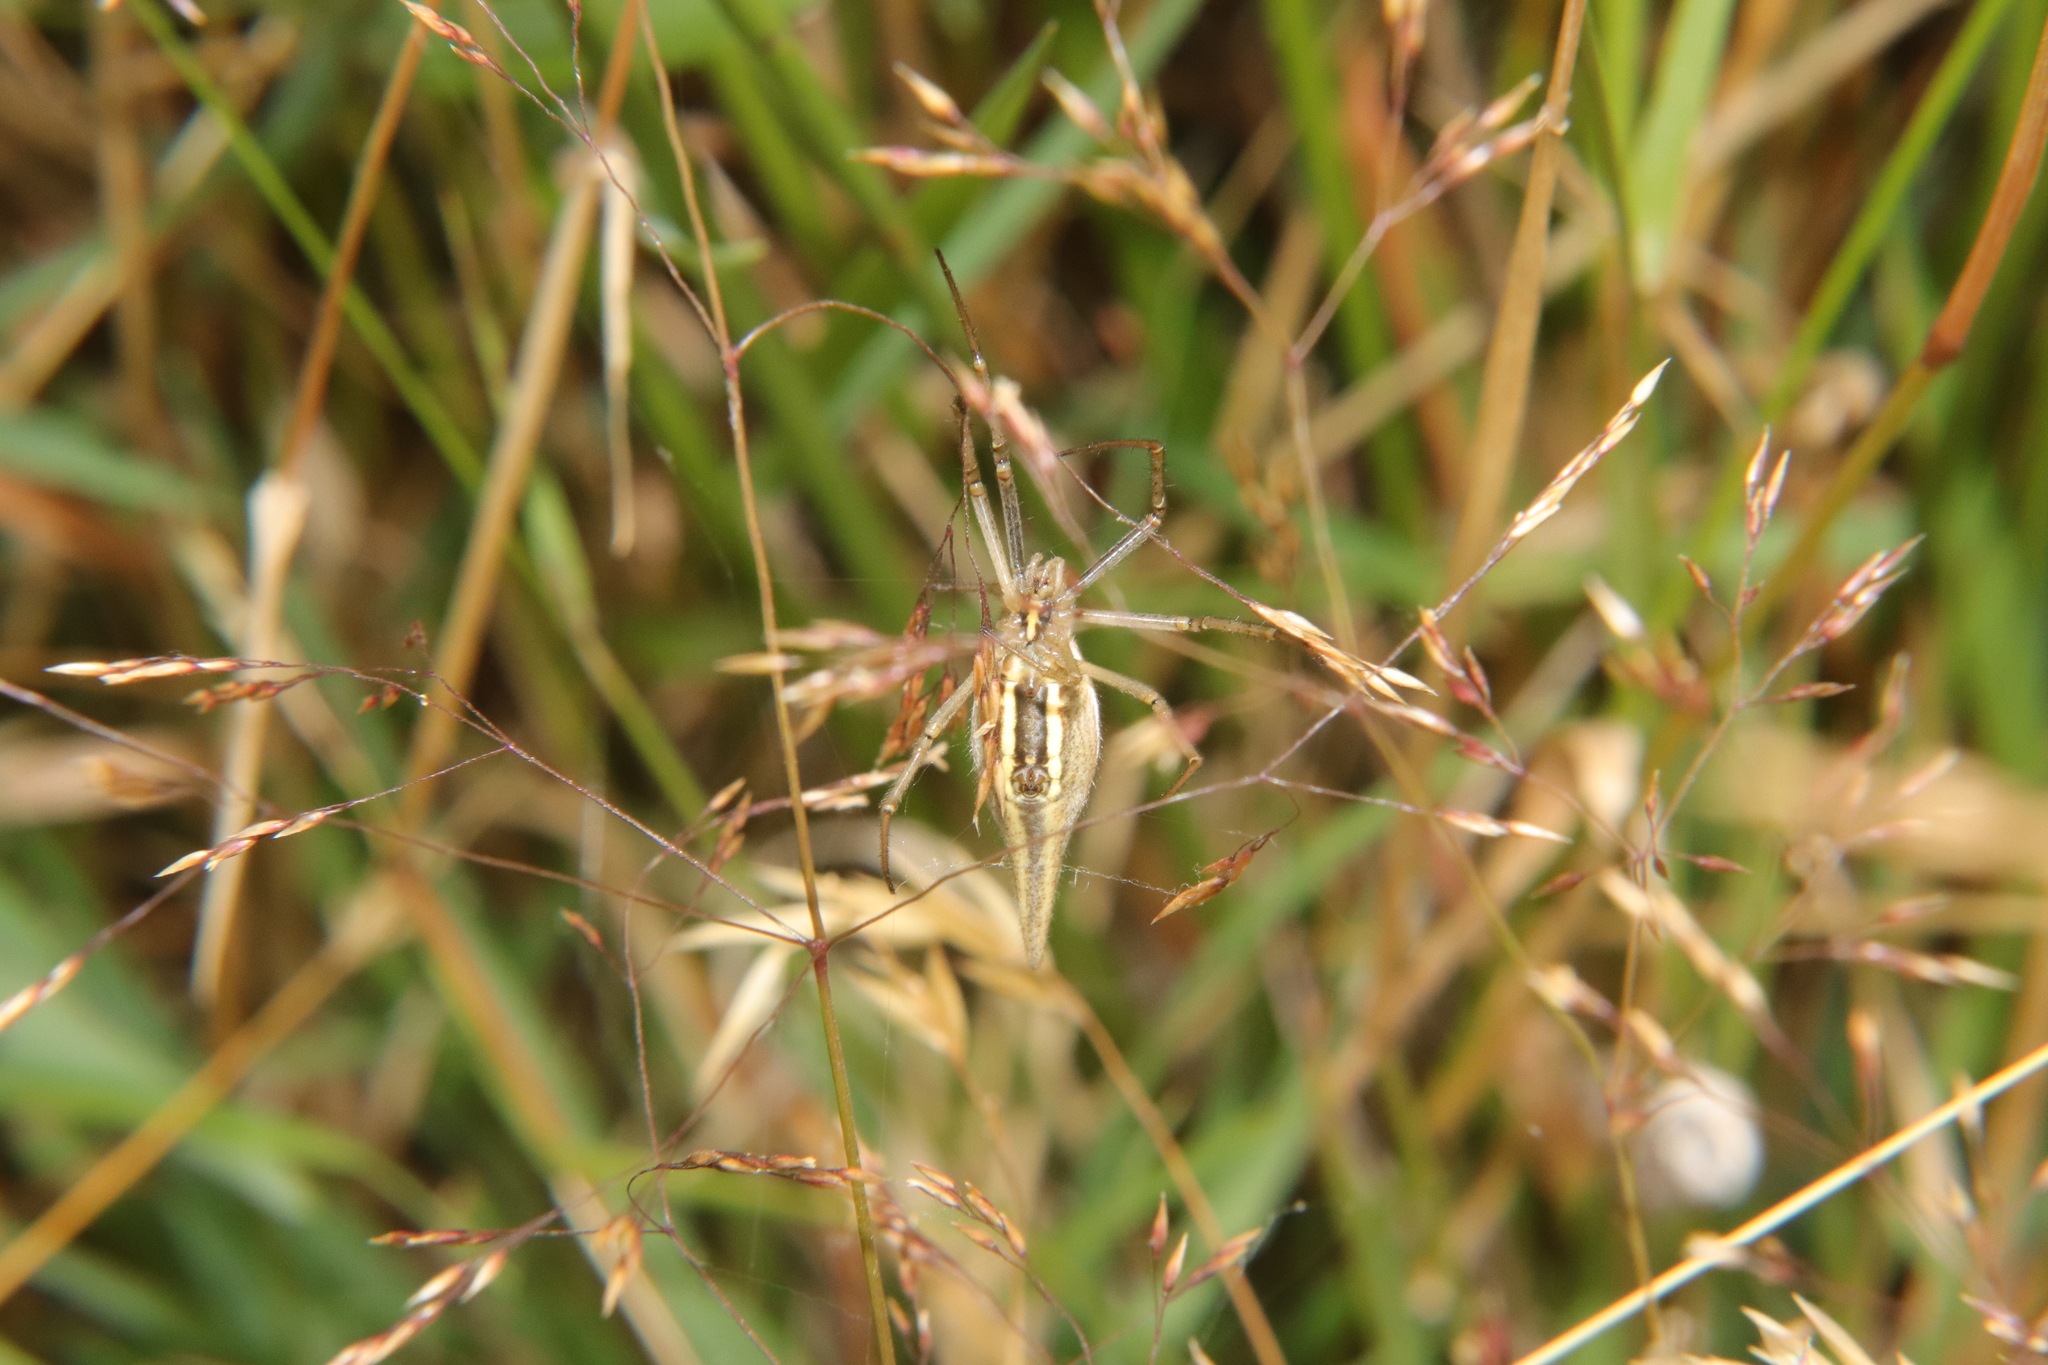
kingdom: Animalia
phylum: Arthropoda
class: Arachnida
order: Araneae
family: Araneidae
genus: Argiope
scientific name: Argiope protensa
